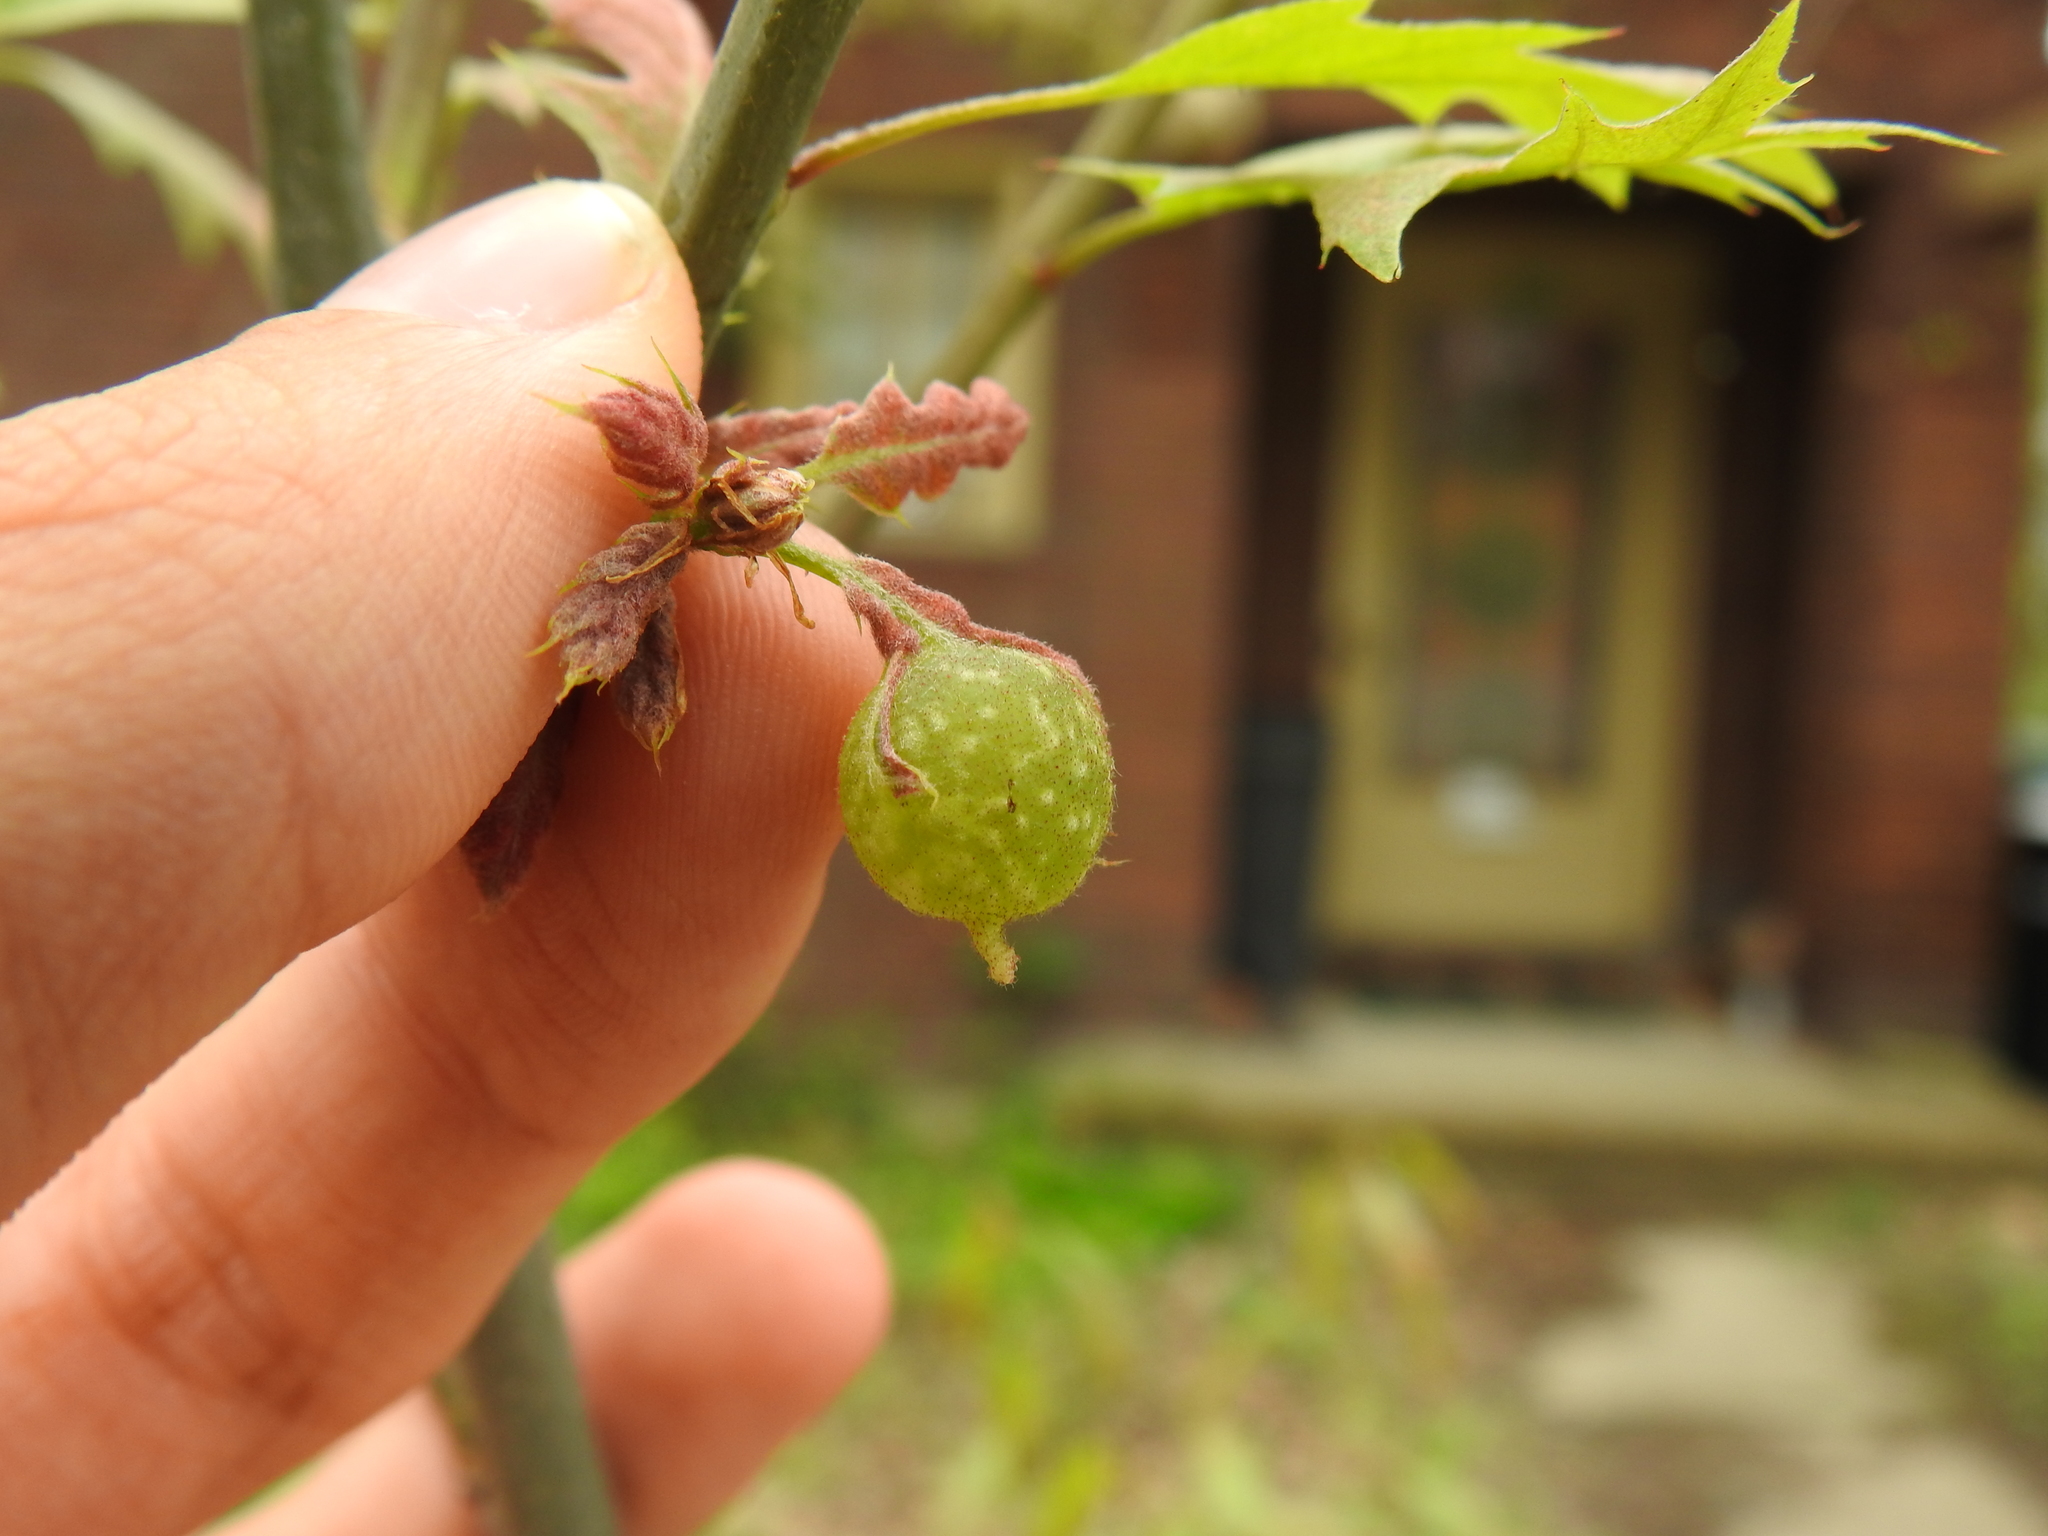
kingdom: Animalia
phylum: Arthropoda
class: Insecta
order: Hymenoptera
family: Cynipidae
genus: Dryocosmus
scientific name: Dryocosmus quercuspalustris
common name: Succulent oak gall wasp
